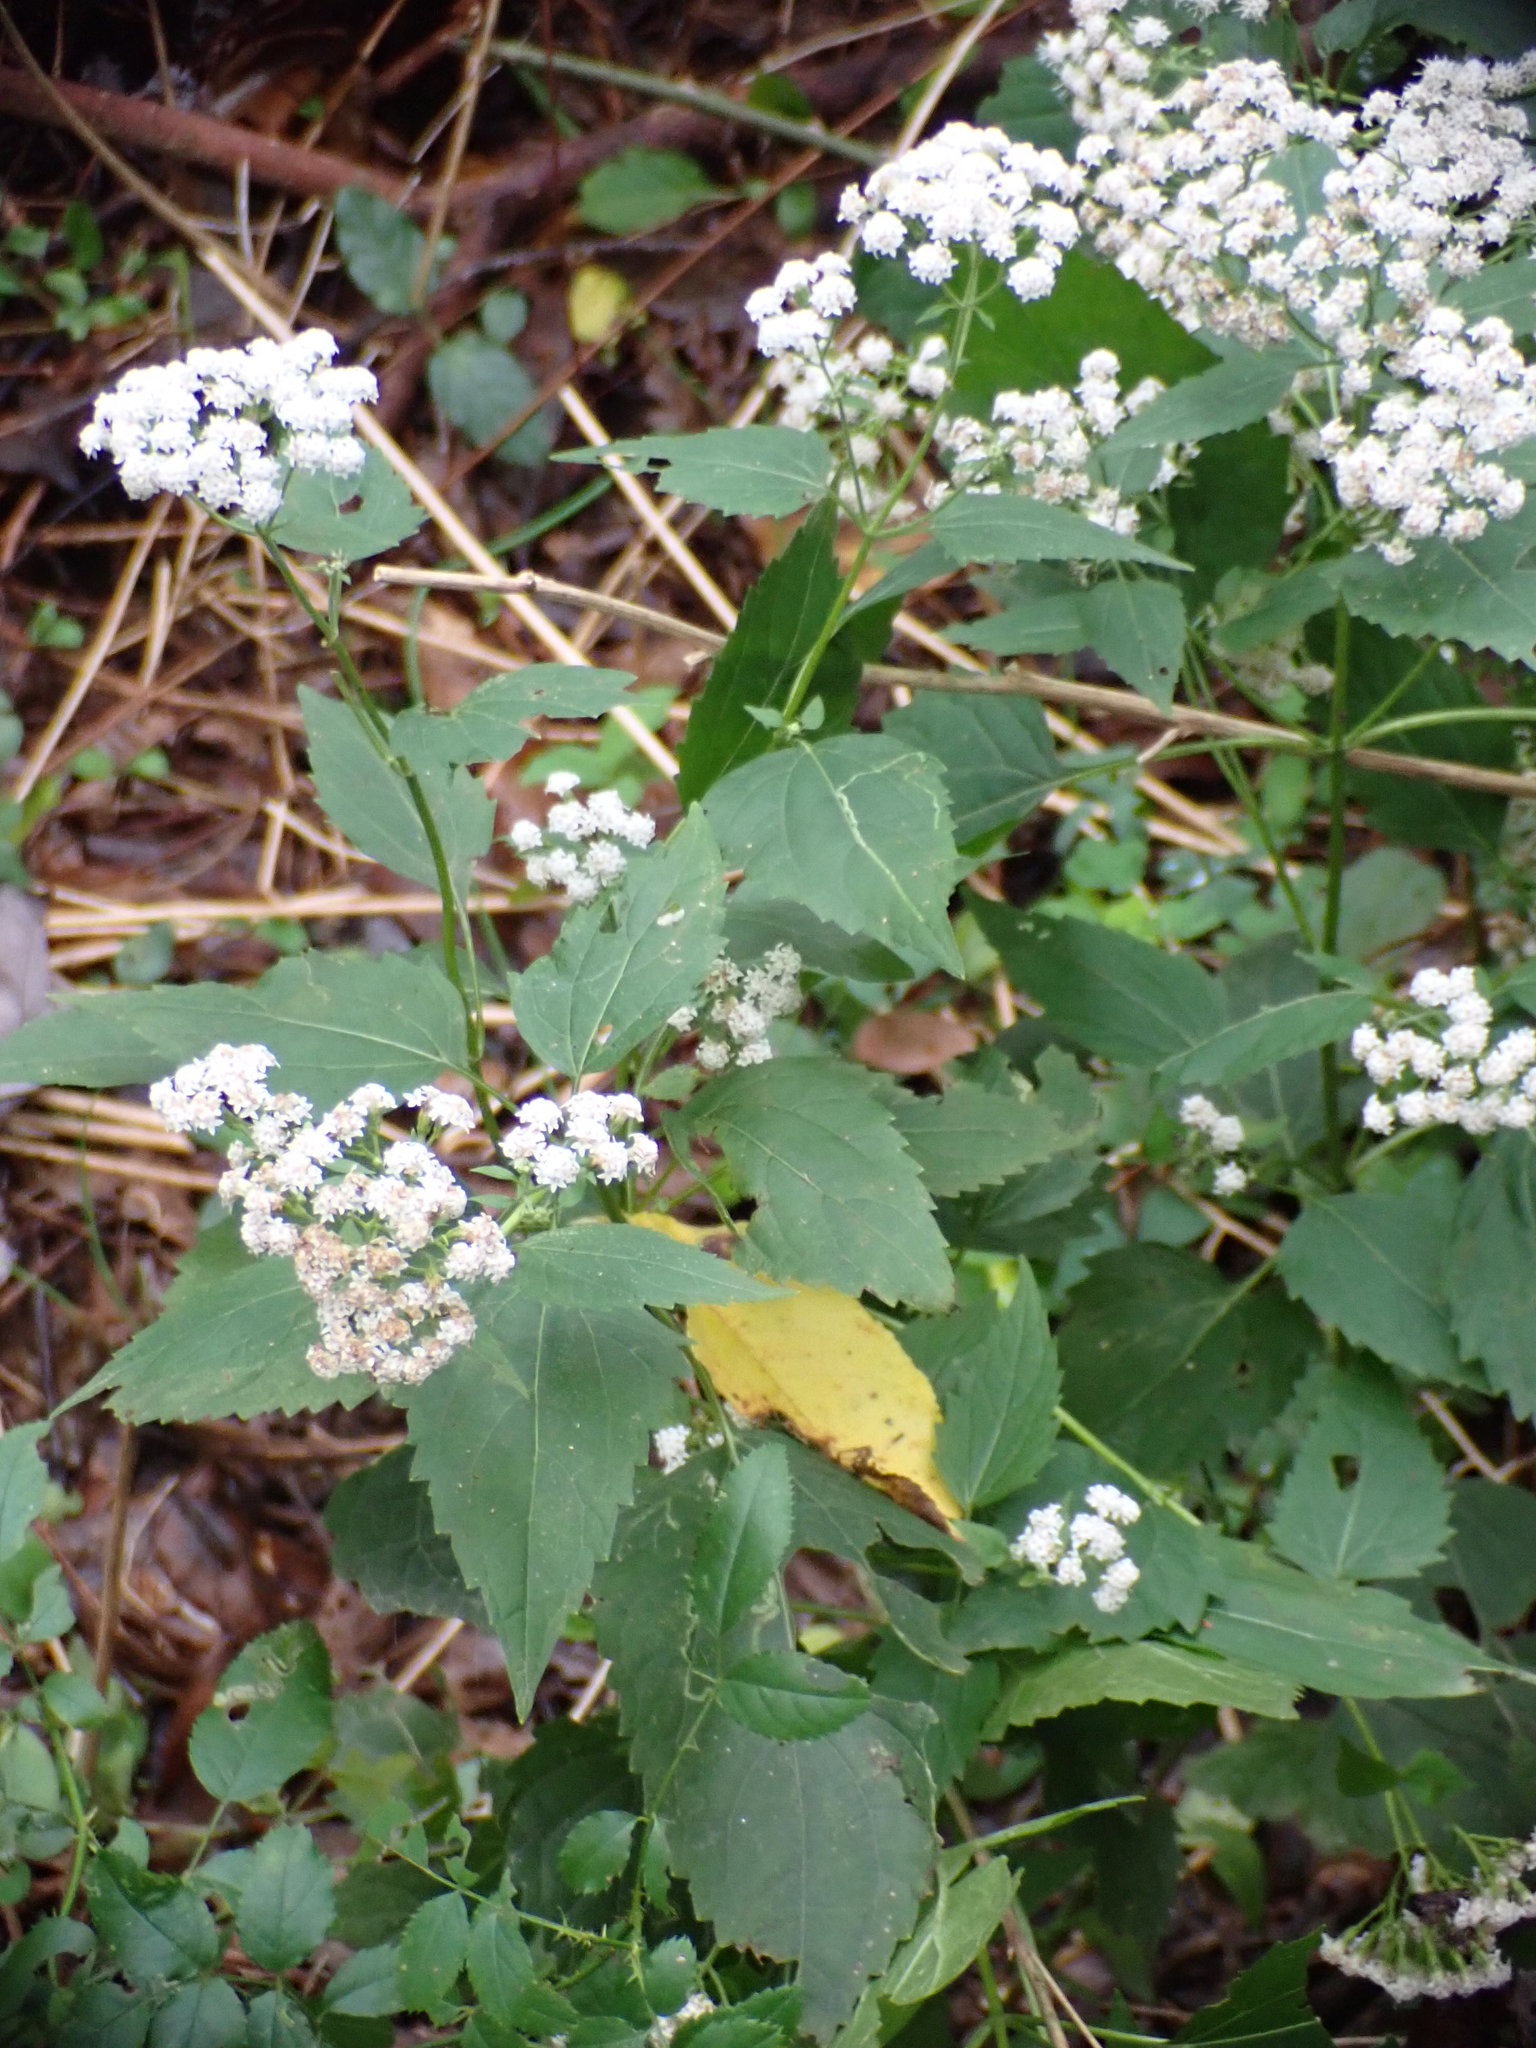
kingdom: Plantae
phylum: Tracheophyta
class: Magnoliopsida
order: Asterales
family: Asteraceae
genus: Ageratina
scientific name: Ageratina altissima
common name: White snakeroot
